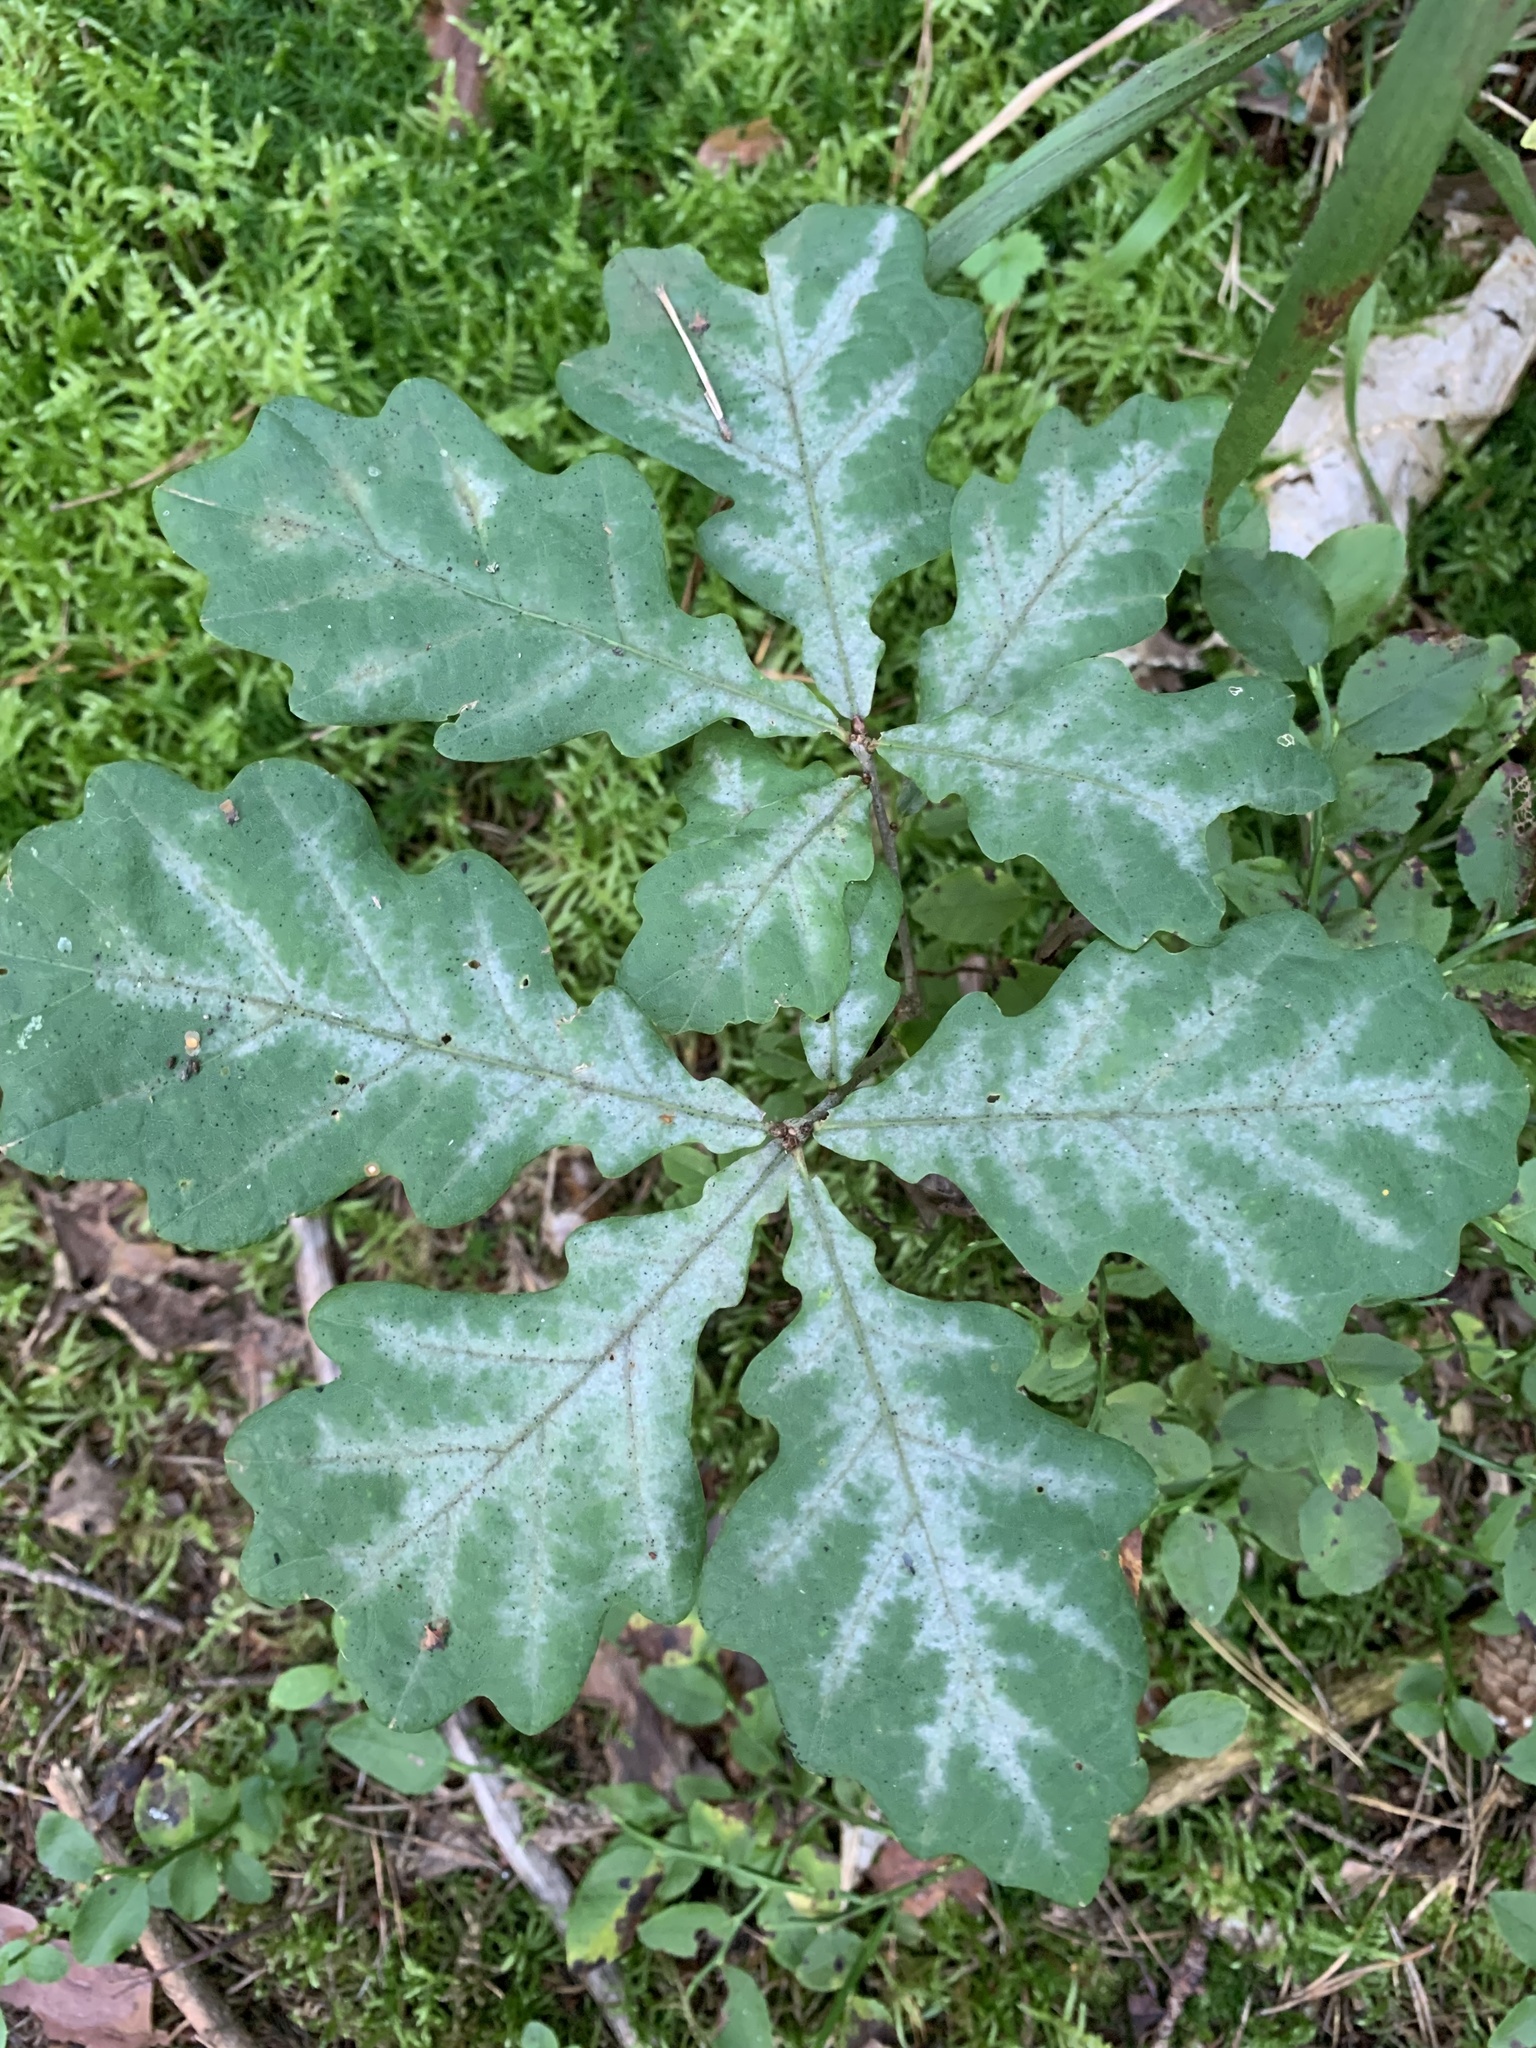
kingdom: Fungi
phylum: Ascomycota
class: Leotiomycetes
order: Helotiales
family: Erysiphaceae
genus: Erysiphe
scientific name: Erysiphe
